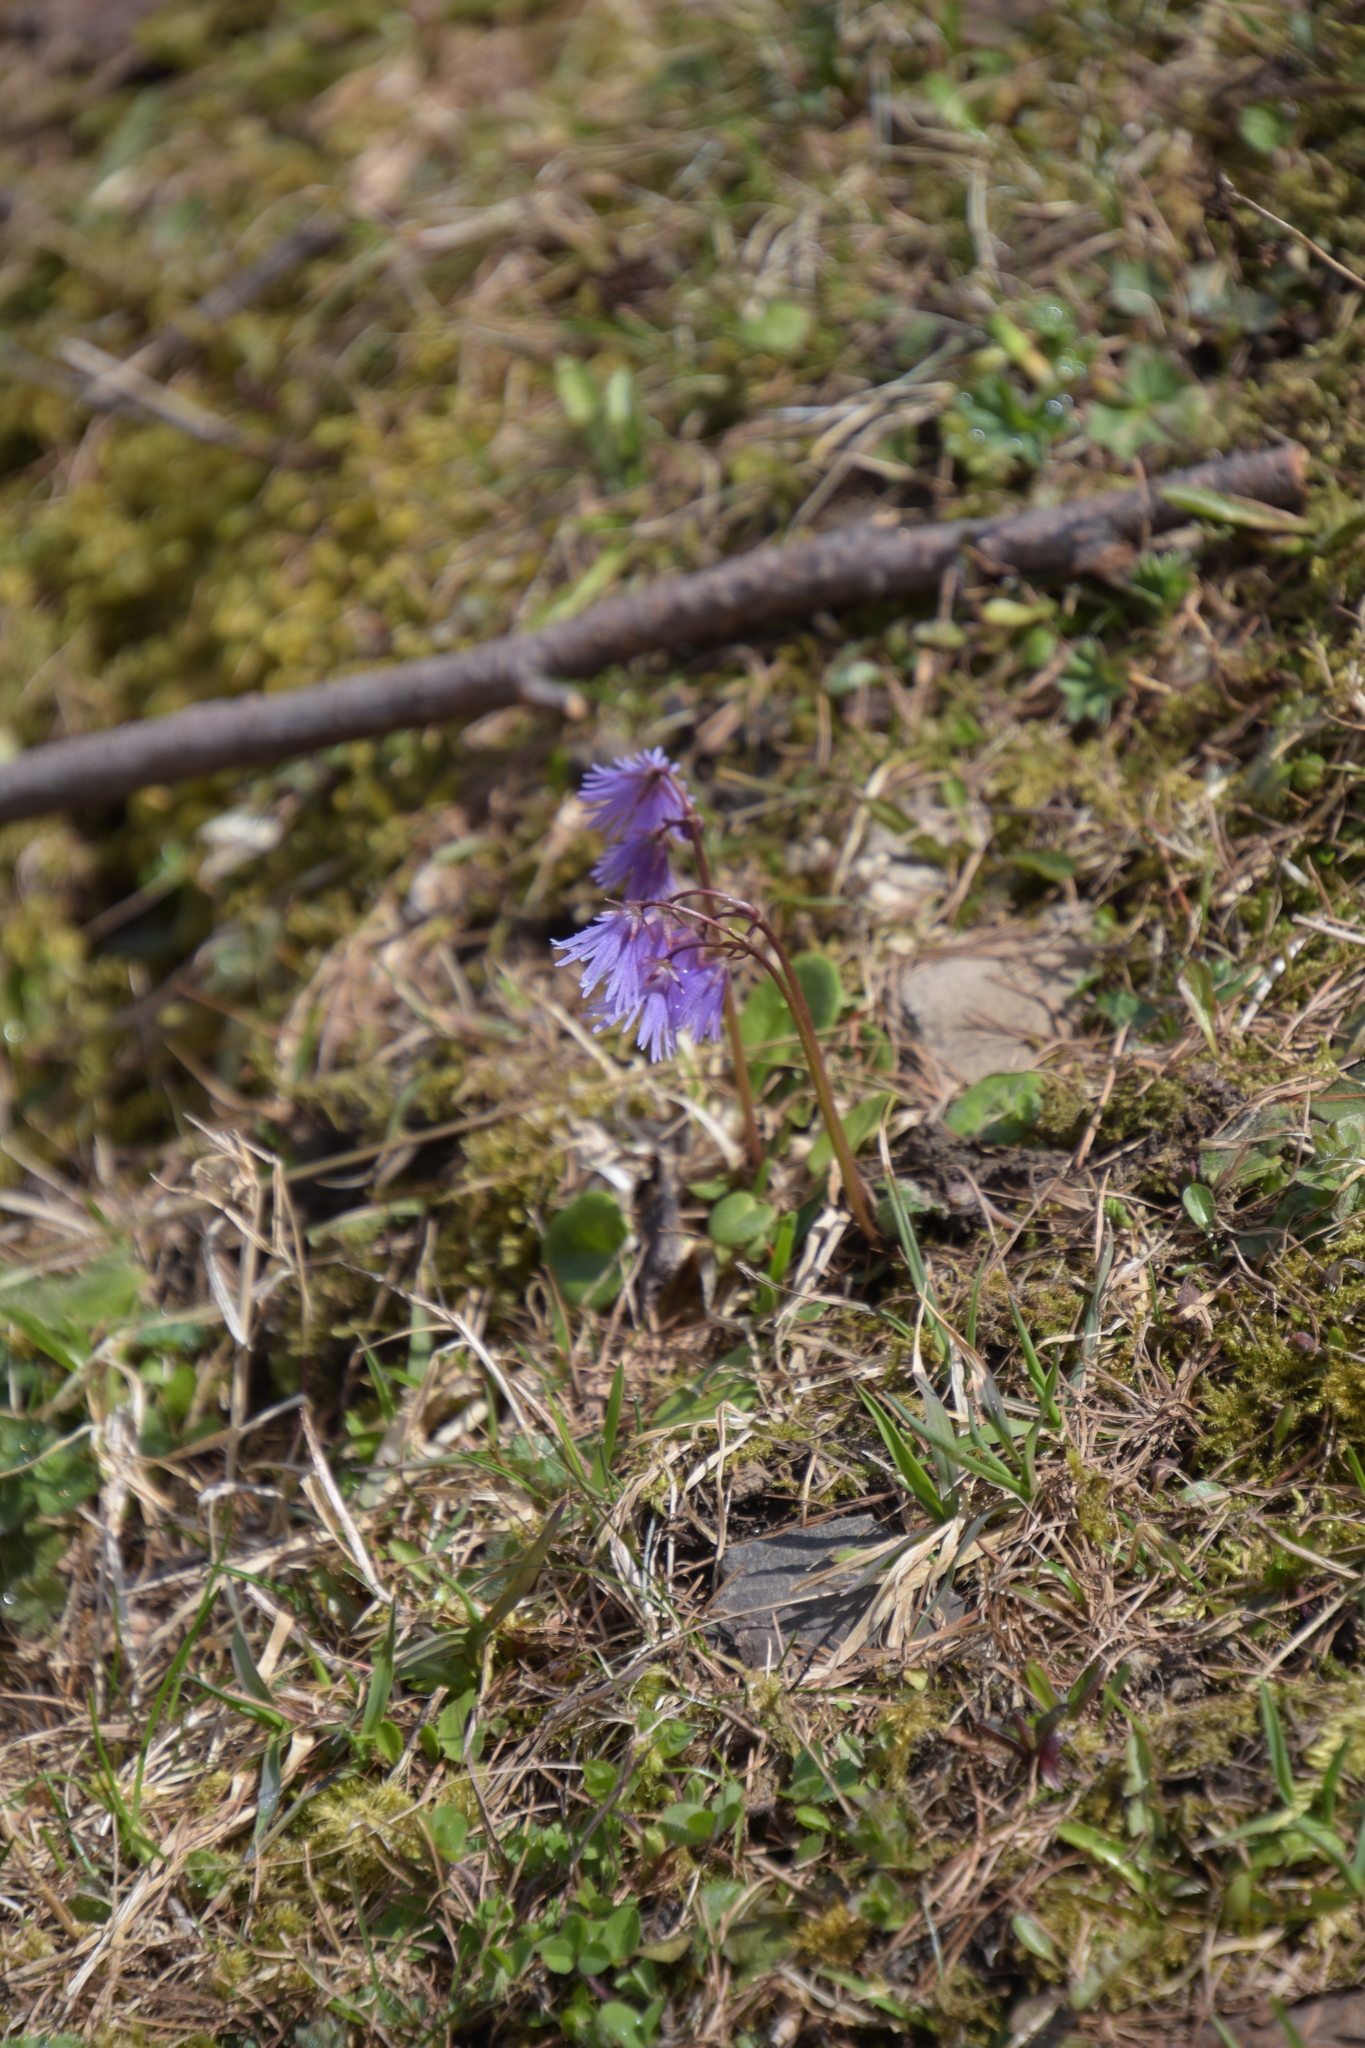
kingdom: Plantae
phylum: Tracheophyta
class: Magnoliopsida
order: Ericales
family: Primulaceae
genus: Soldanella
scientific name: Soldanella alpina
